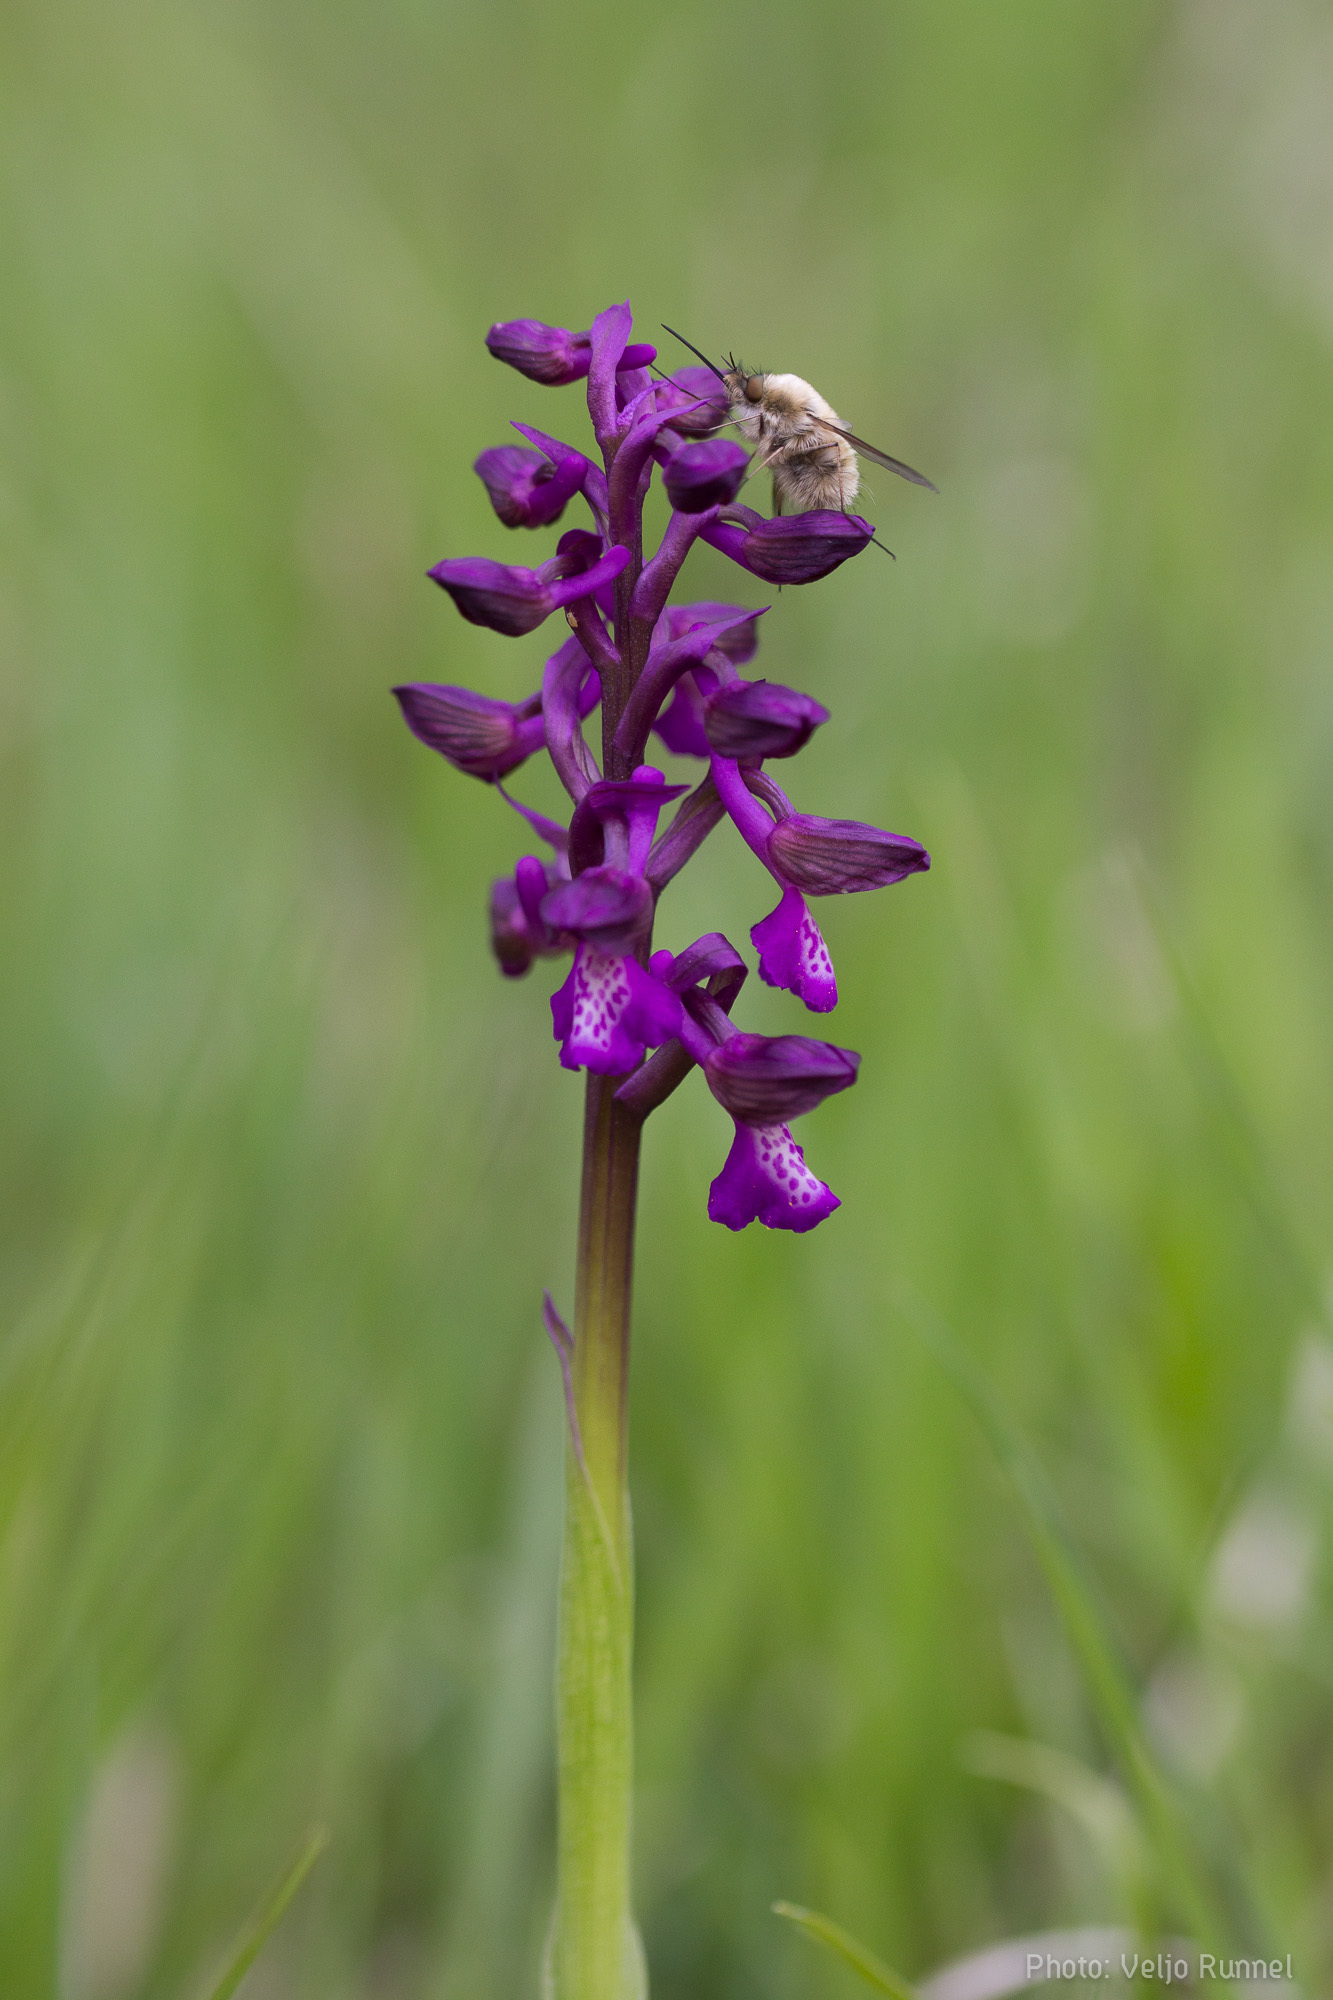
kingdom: Plantae
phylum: Tracheophyta
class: Liliopsida
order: Asparagales
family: Orchidaceae
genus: Anacamptis
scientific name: Anacamptis morio
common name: Green-winged orchid
